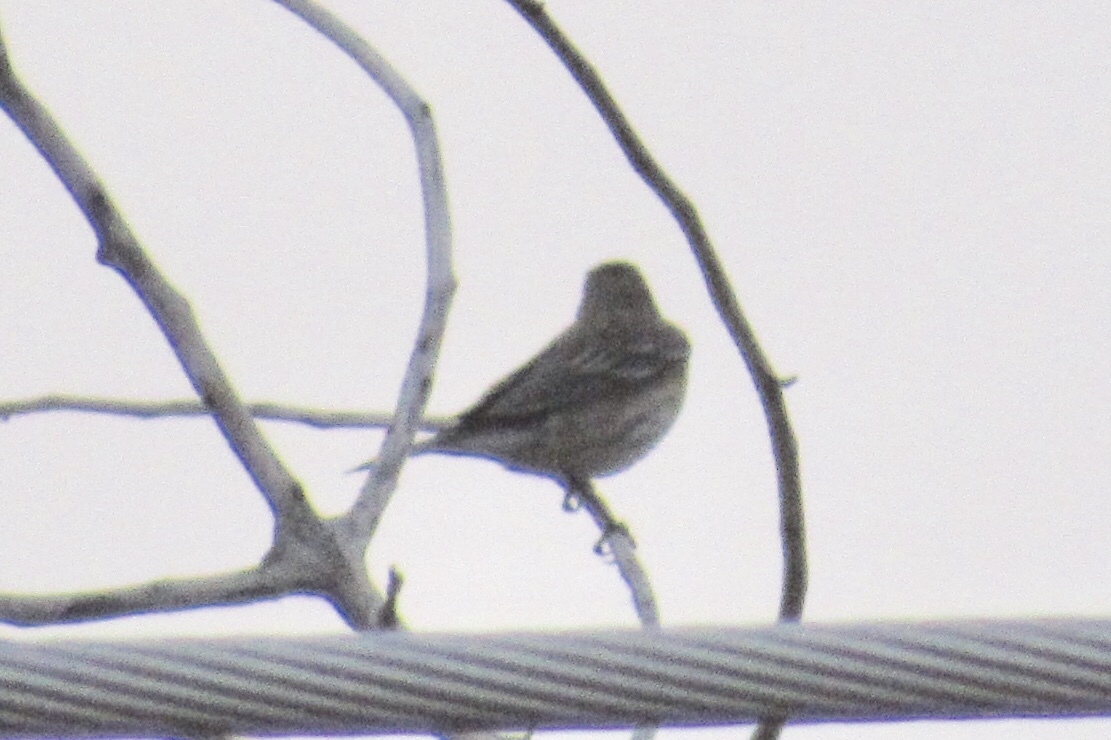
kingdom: Animalia
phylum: Chordata
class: Aves
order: Passeriformes
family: Parulidae
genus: Setophaga
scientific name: Setophaga coronata
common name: Myrtle warbler
